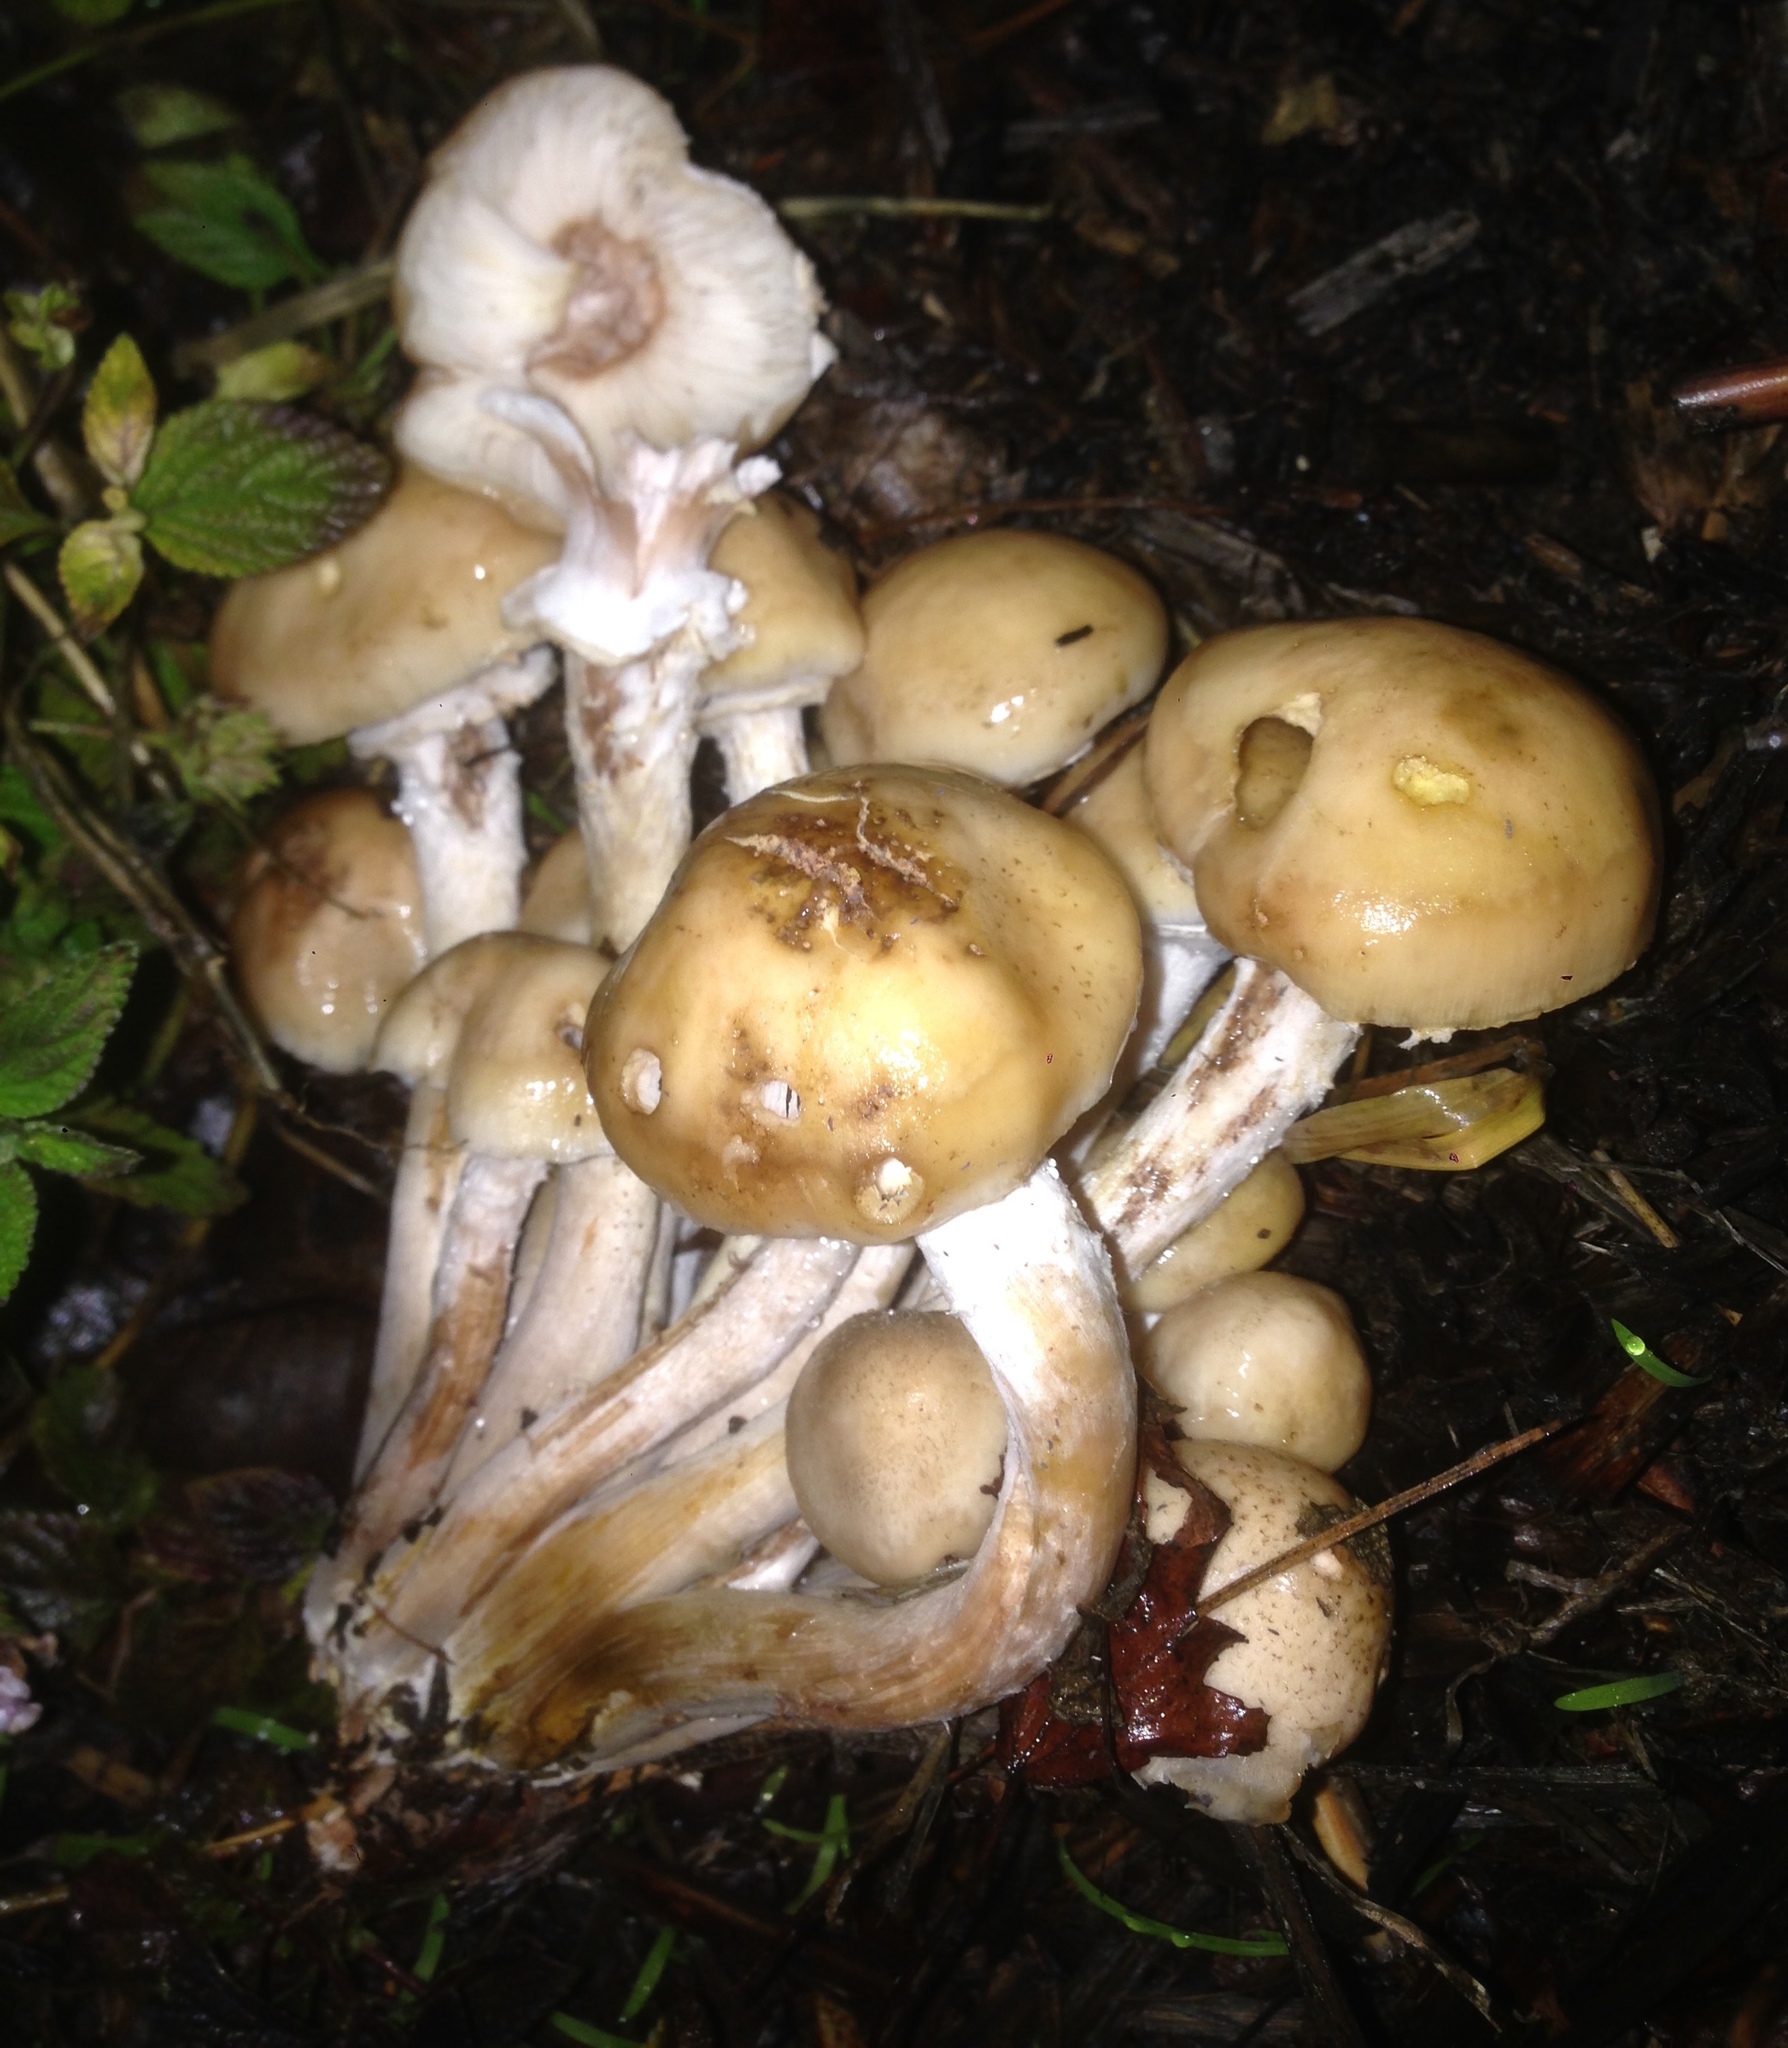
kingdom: Fungi
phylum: Basidiomycota
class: Agaricomycetes
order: Agaricales
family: Physalacriaceae
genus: Armillaria
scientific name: Armillaria mellea
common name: Honey fungus
